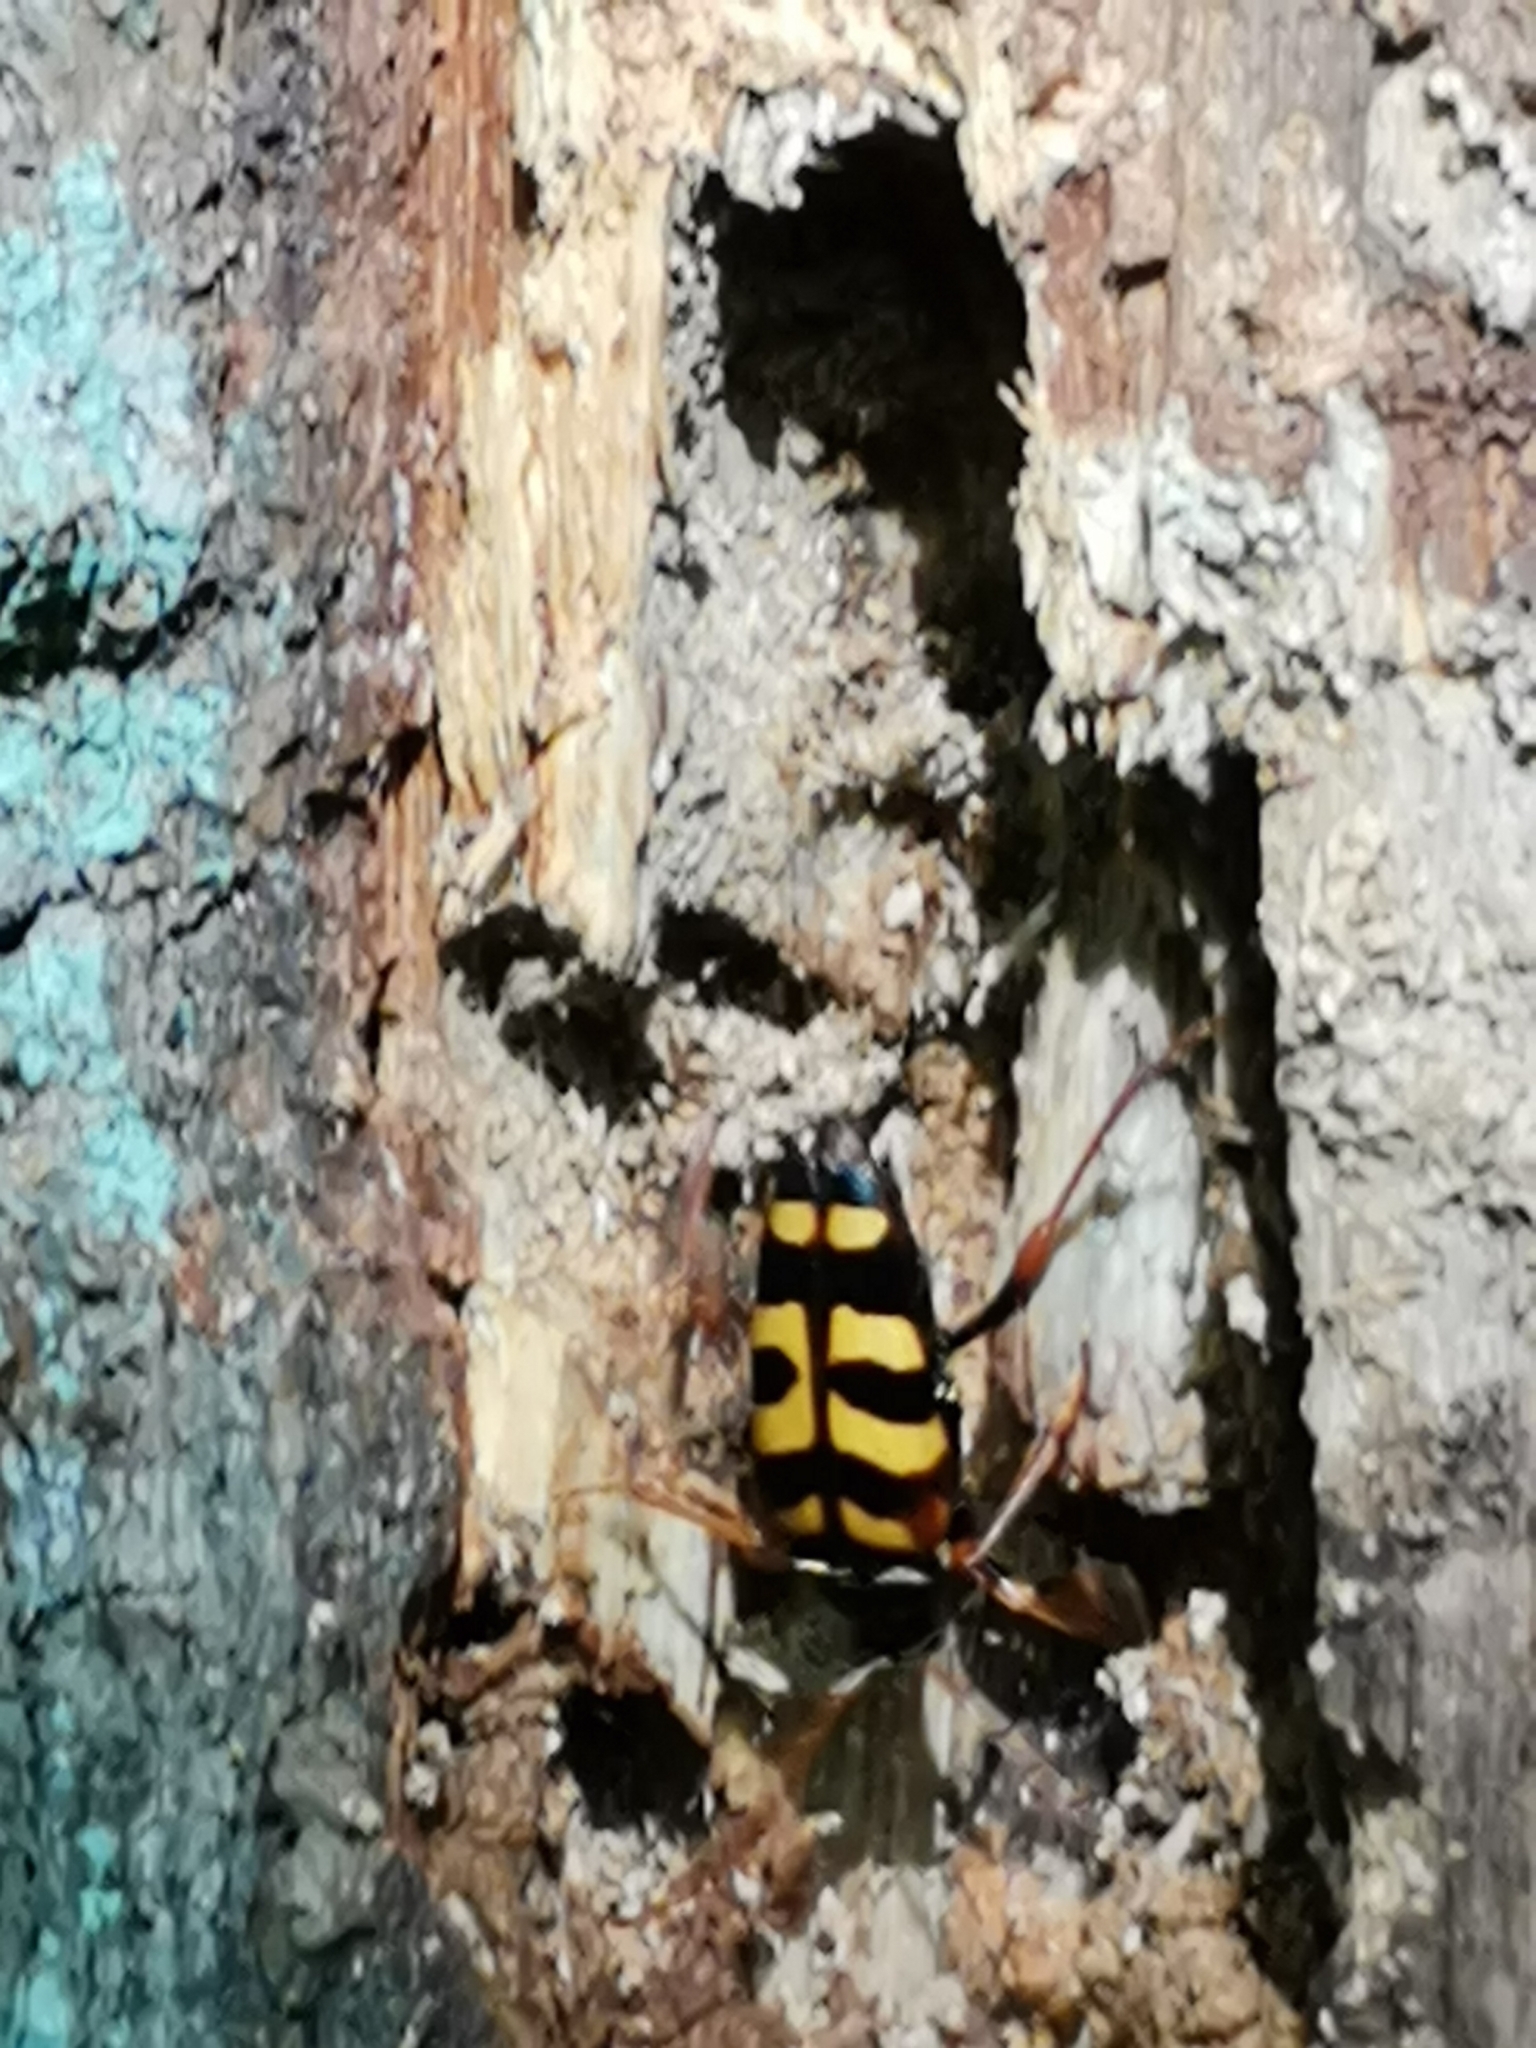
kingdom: Animalia
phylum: Arthropoda
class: Insecta
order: Coleoptera
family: Cerambycidae
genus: Leptura
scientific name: Leptura aurulenta
